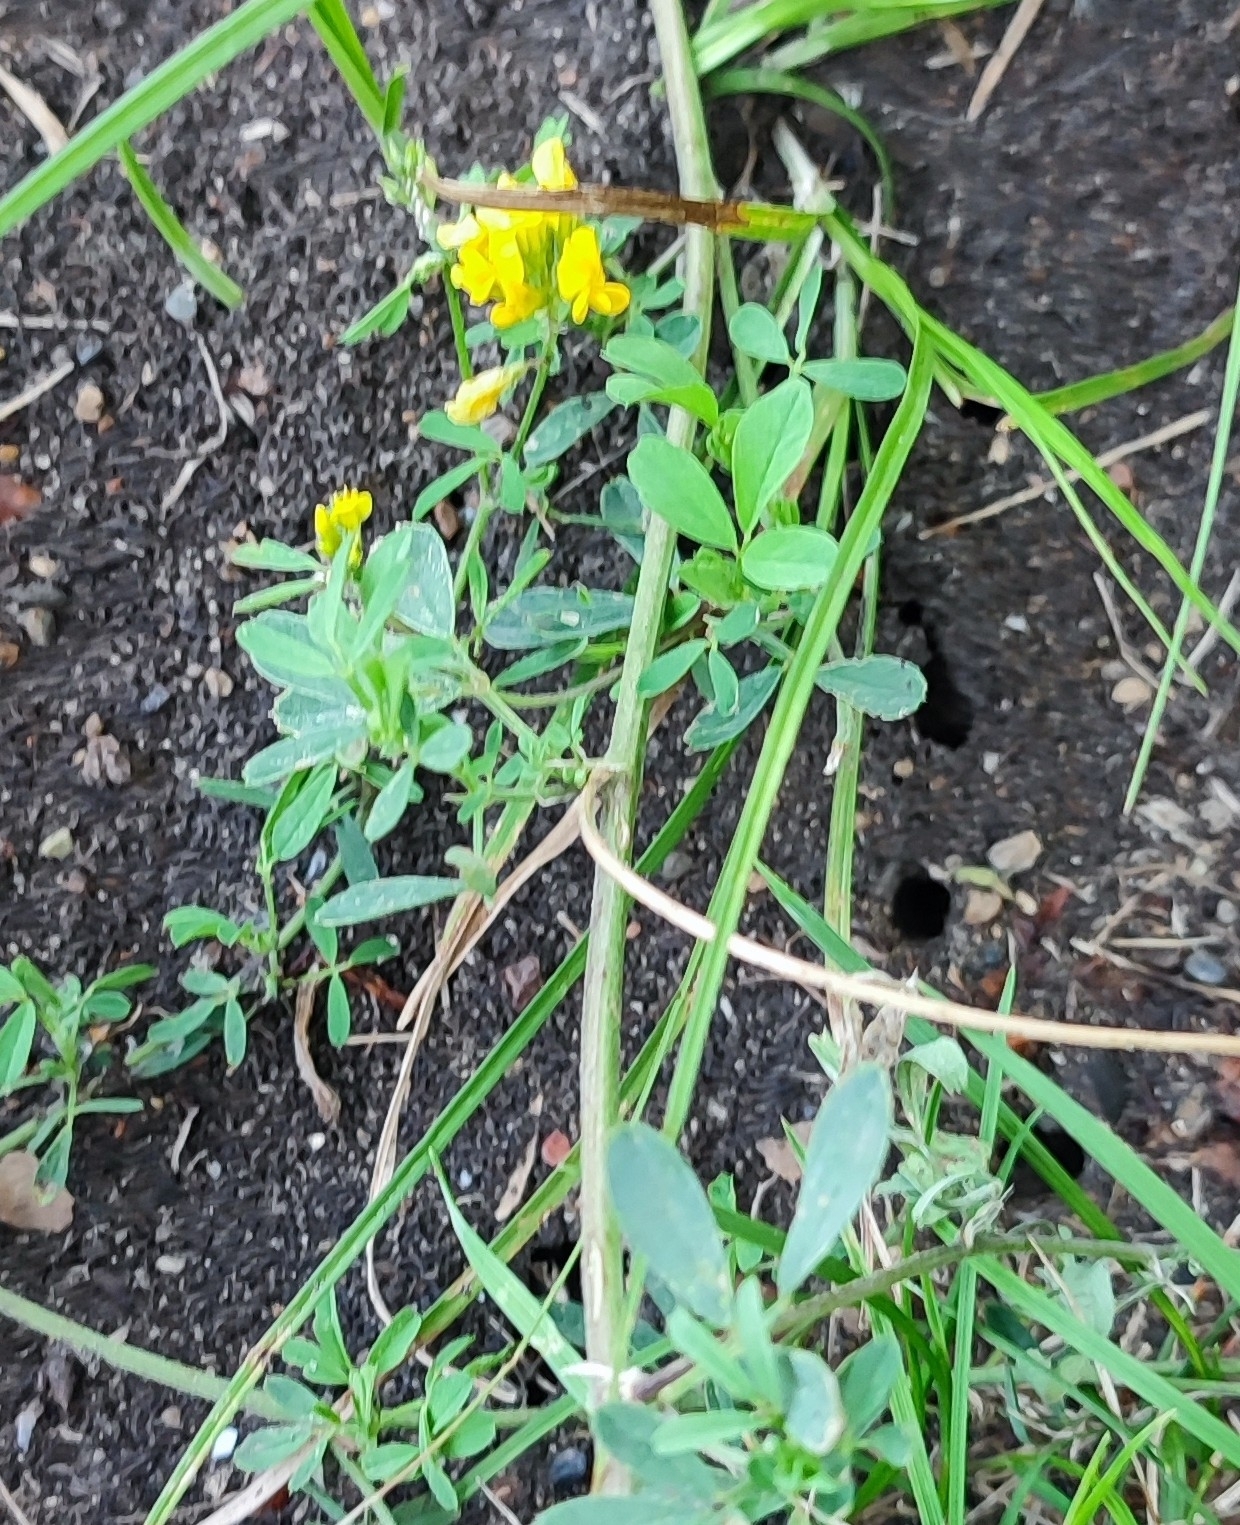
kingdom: Plantae
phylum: Tracheophyta
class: Magnoliopsida
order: Fabales
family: Fabaceae
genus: Medicago
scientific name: Medicago falcata
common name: Sickle medick
